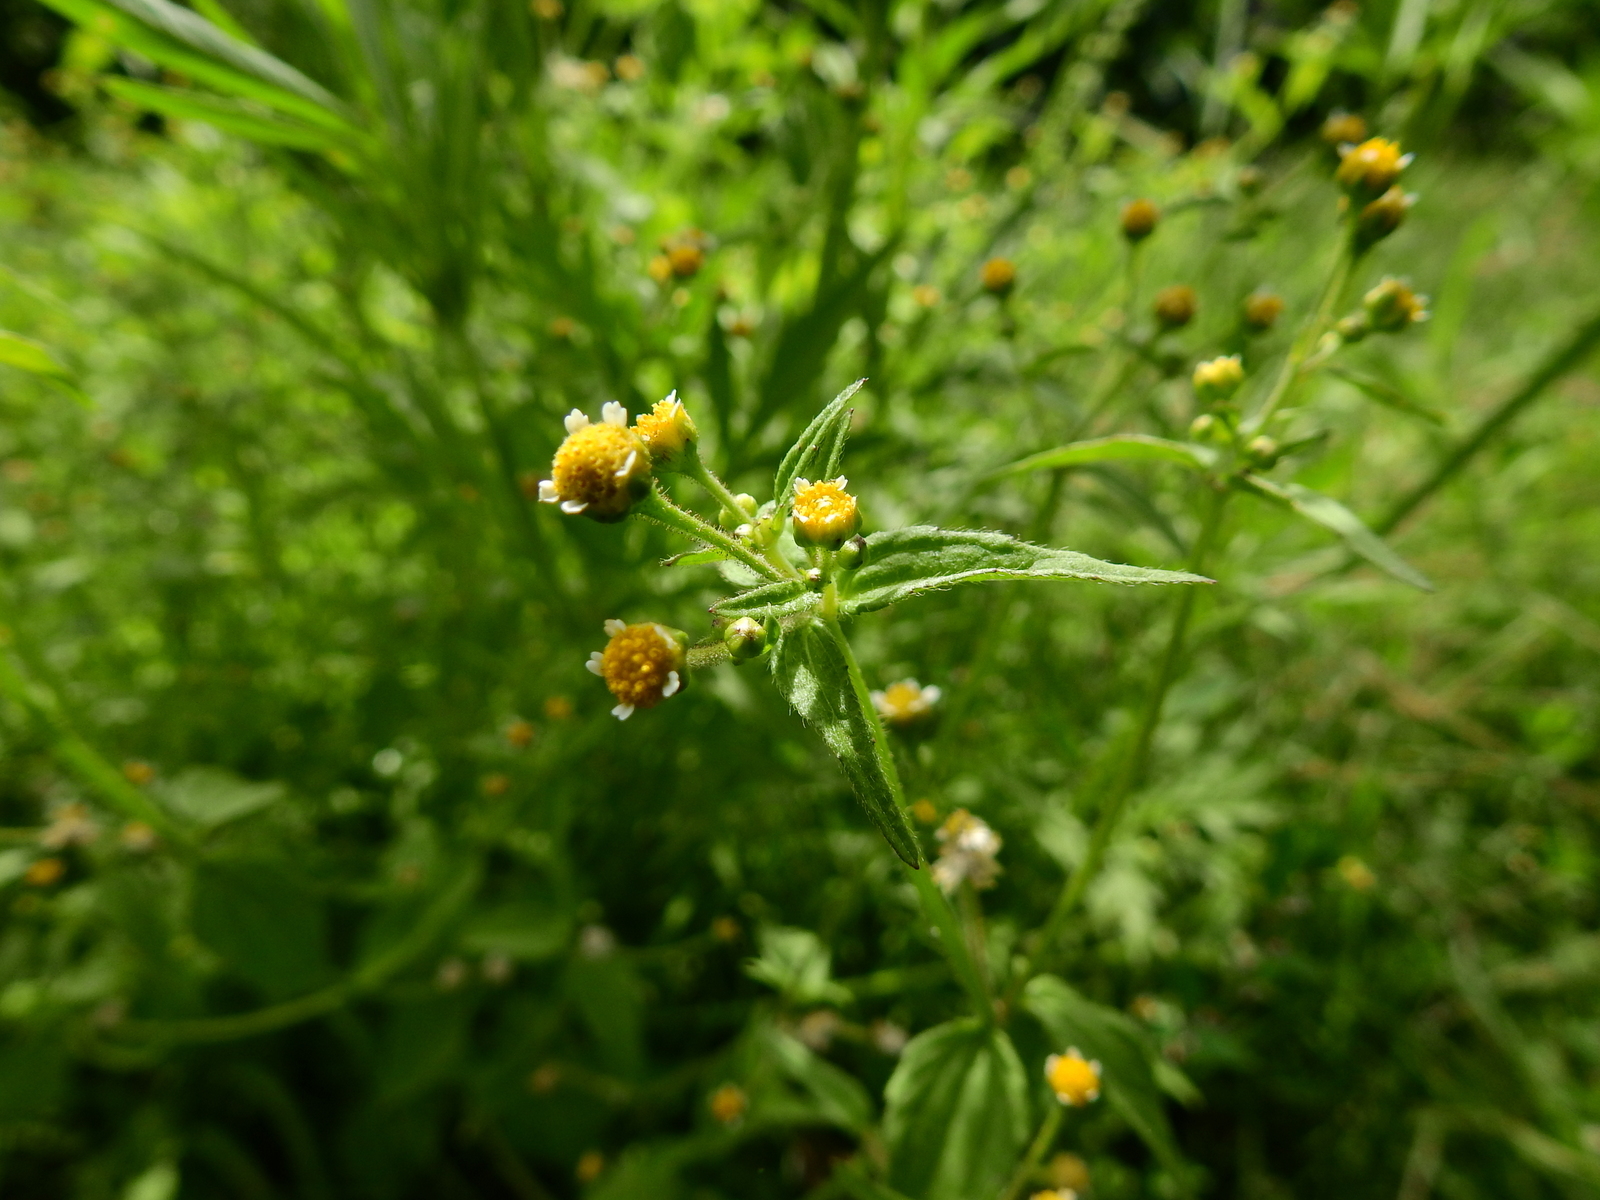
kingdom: Plantae
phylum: Tracheophyta
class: Magnoliopsida
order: Asterales
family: Asteraceae
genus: Galinsoga
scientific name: Galinsoga parviflora
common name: Gallant soldier
